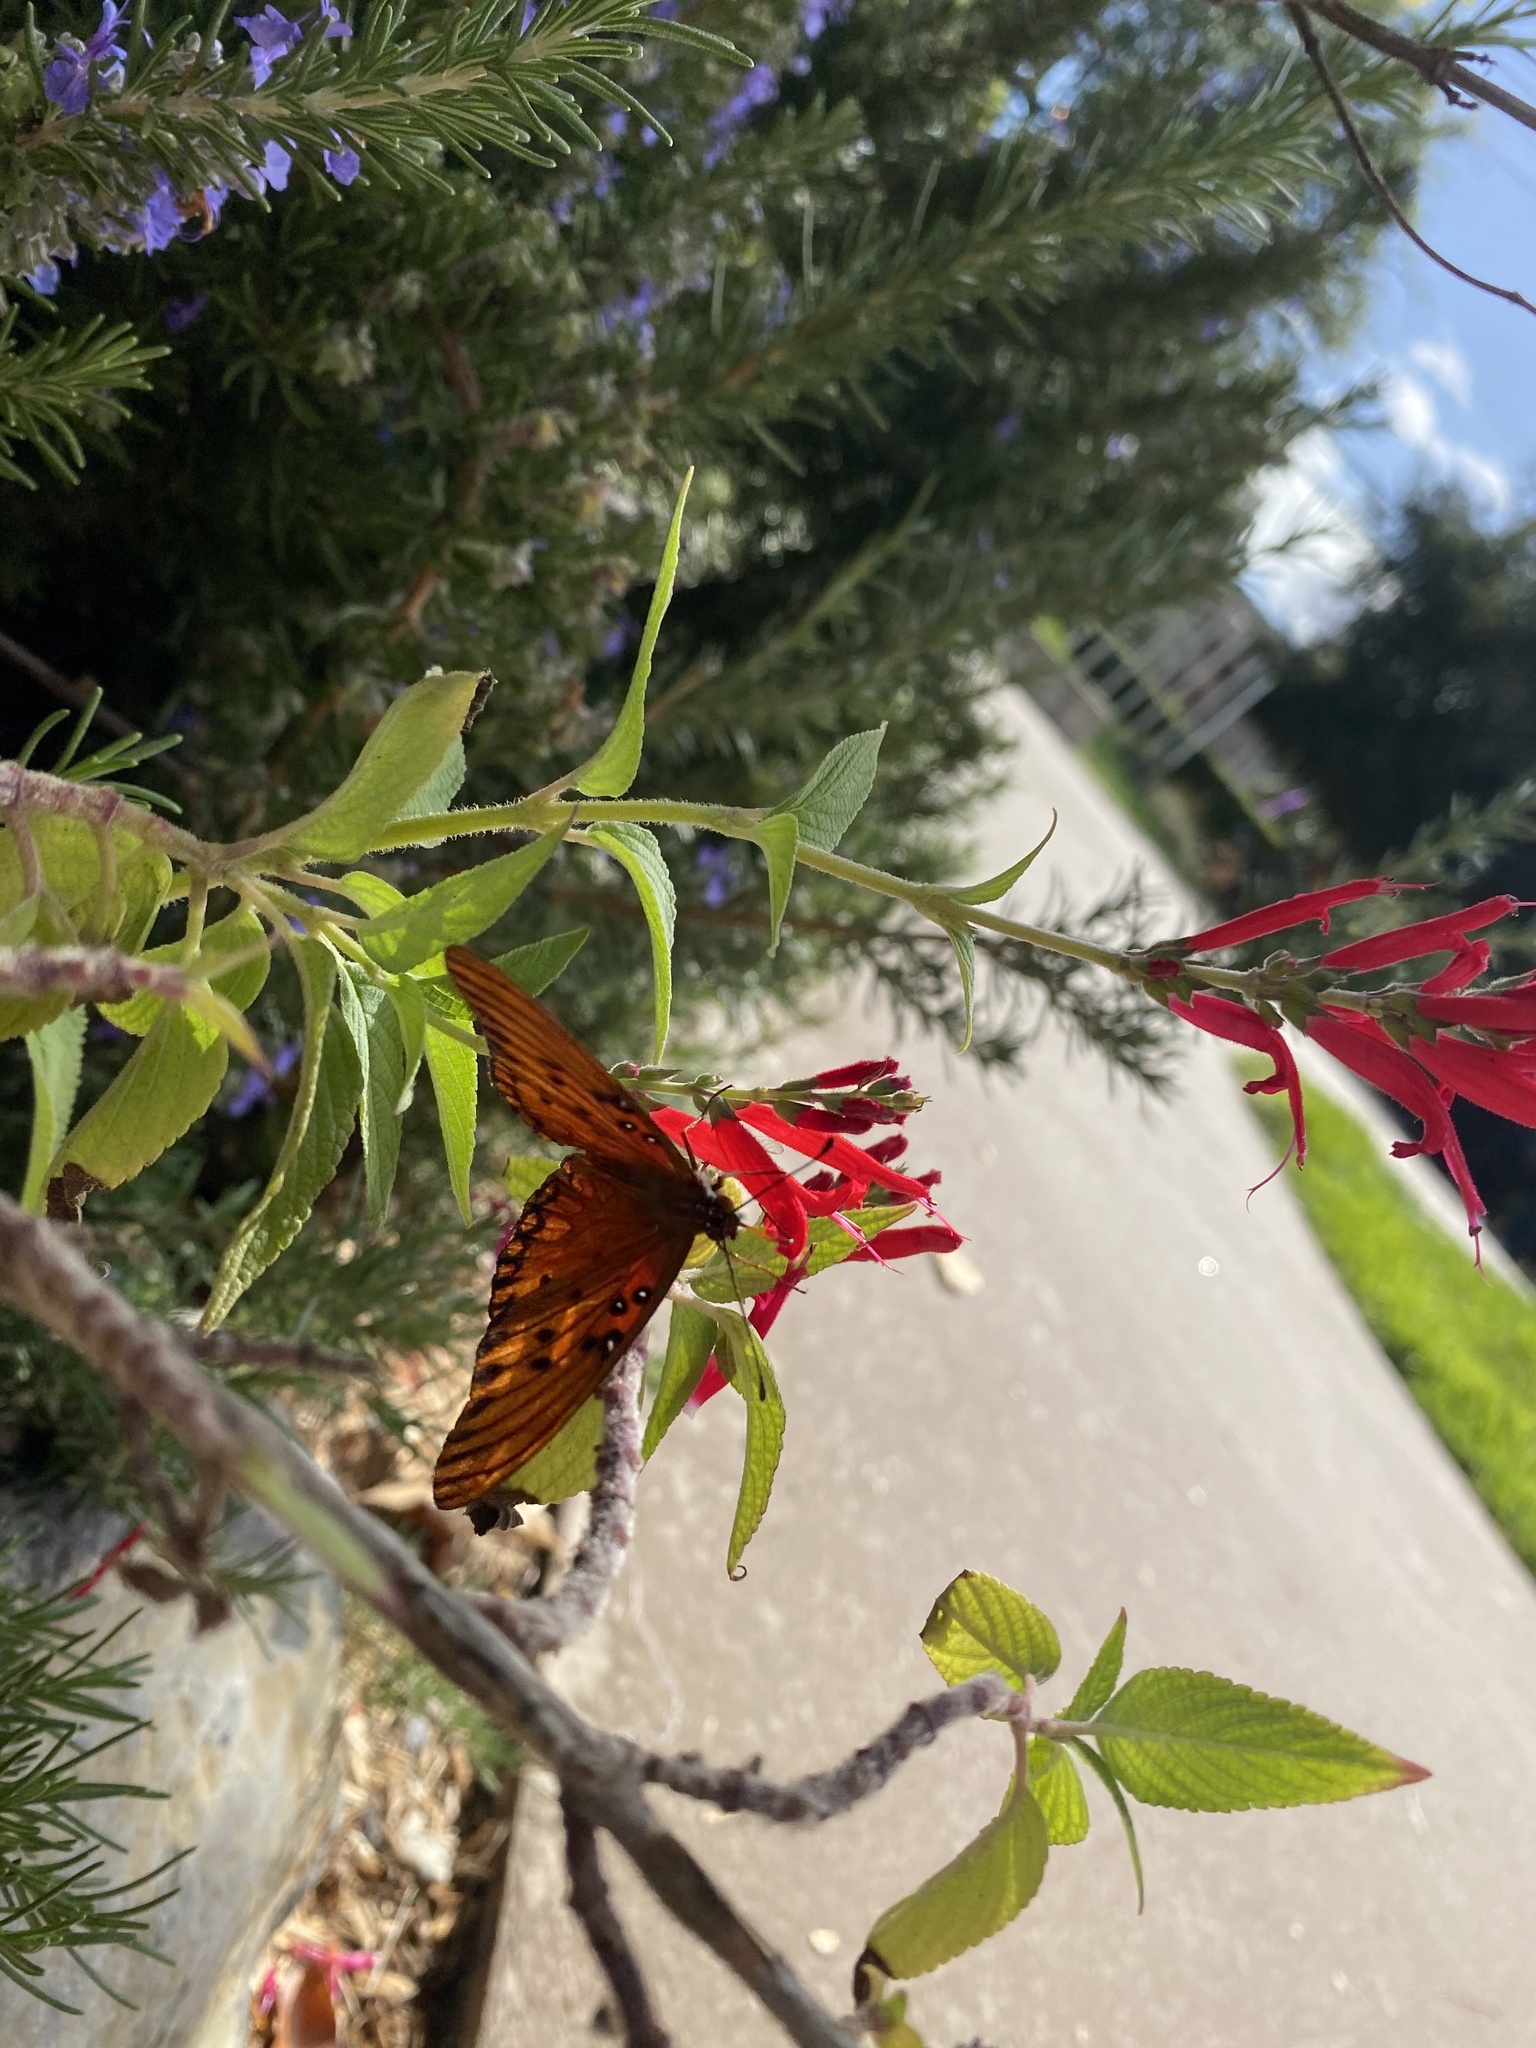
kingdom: Animalia
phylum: Arthropoda
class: Insecta
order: Lepidoptera
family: Nymphalidae
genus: Dione
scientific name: Dione vanillae
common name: Gulf fritillary
